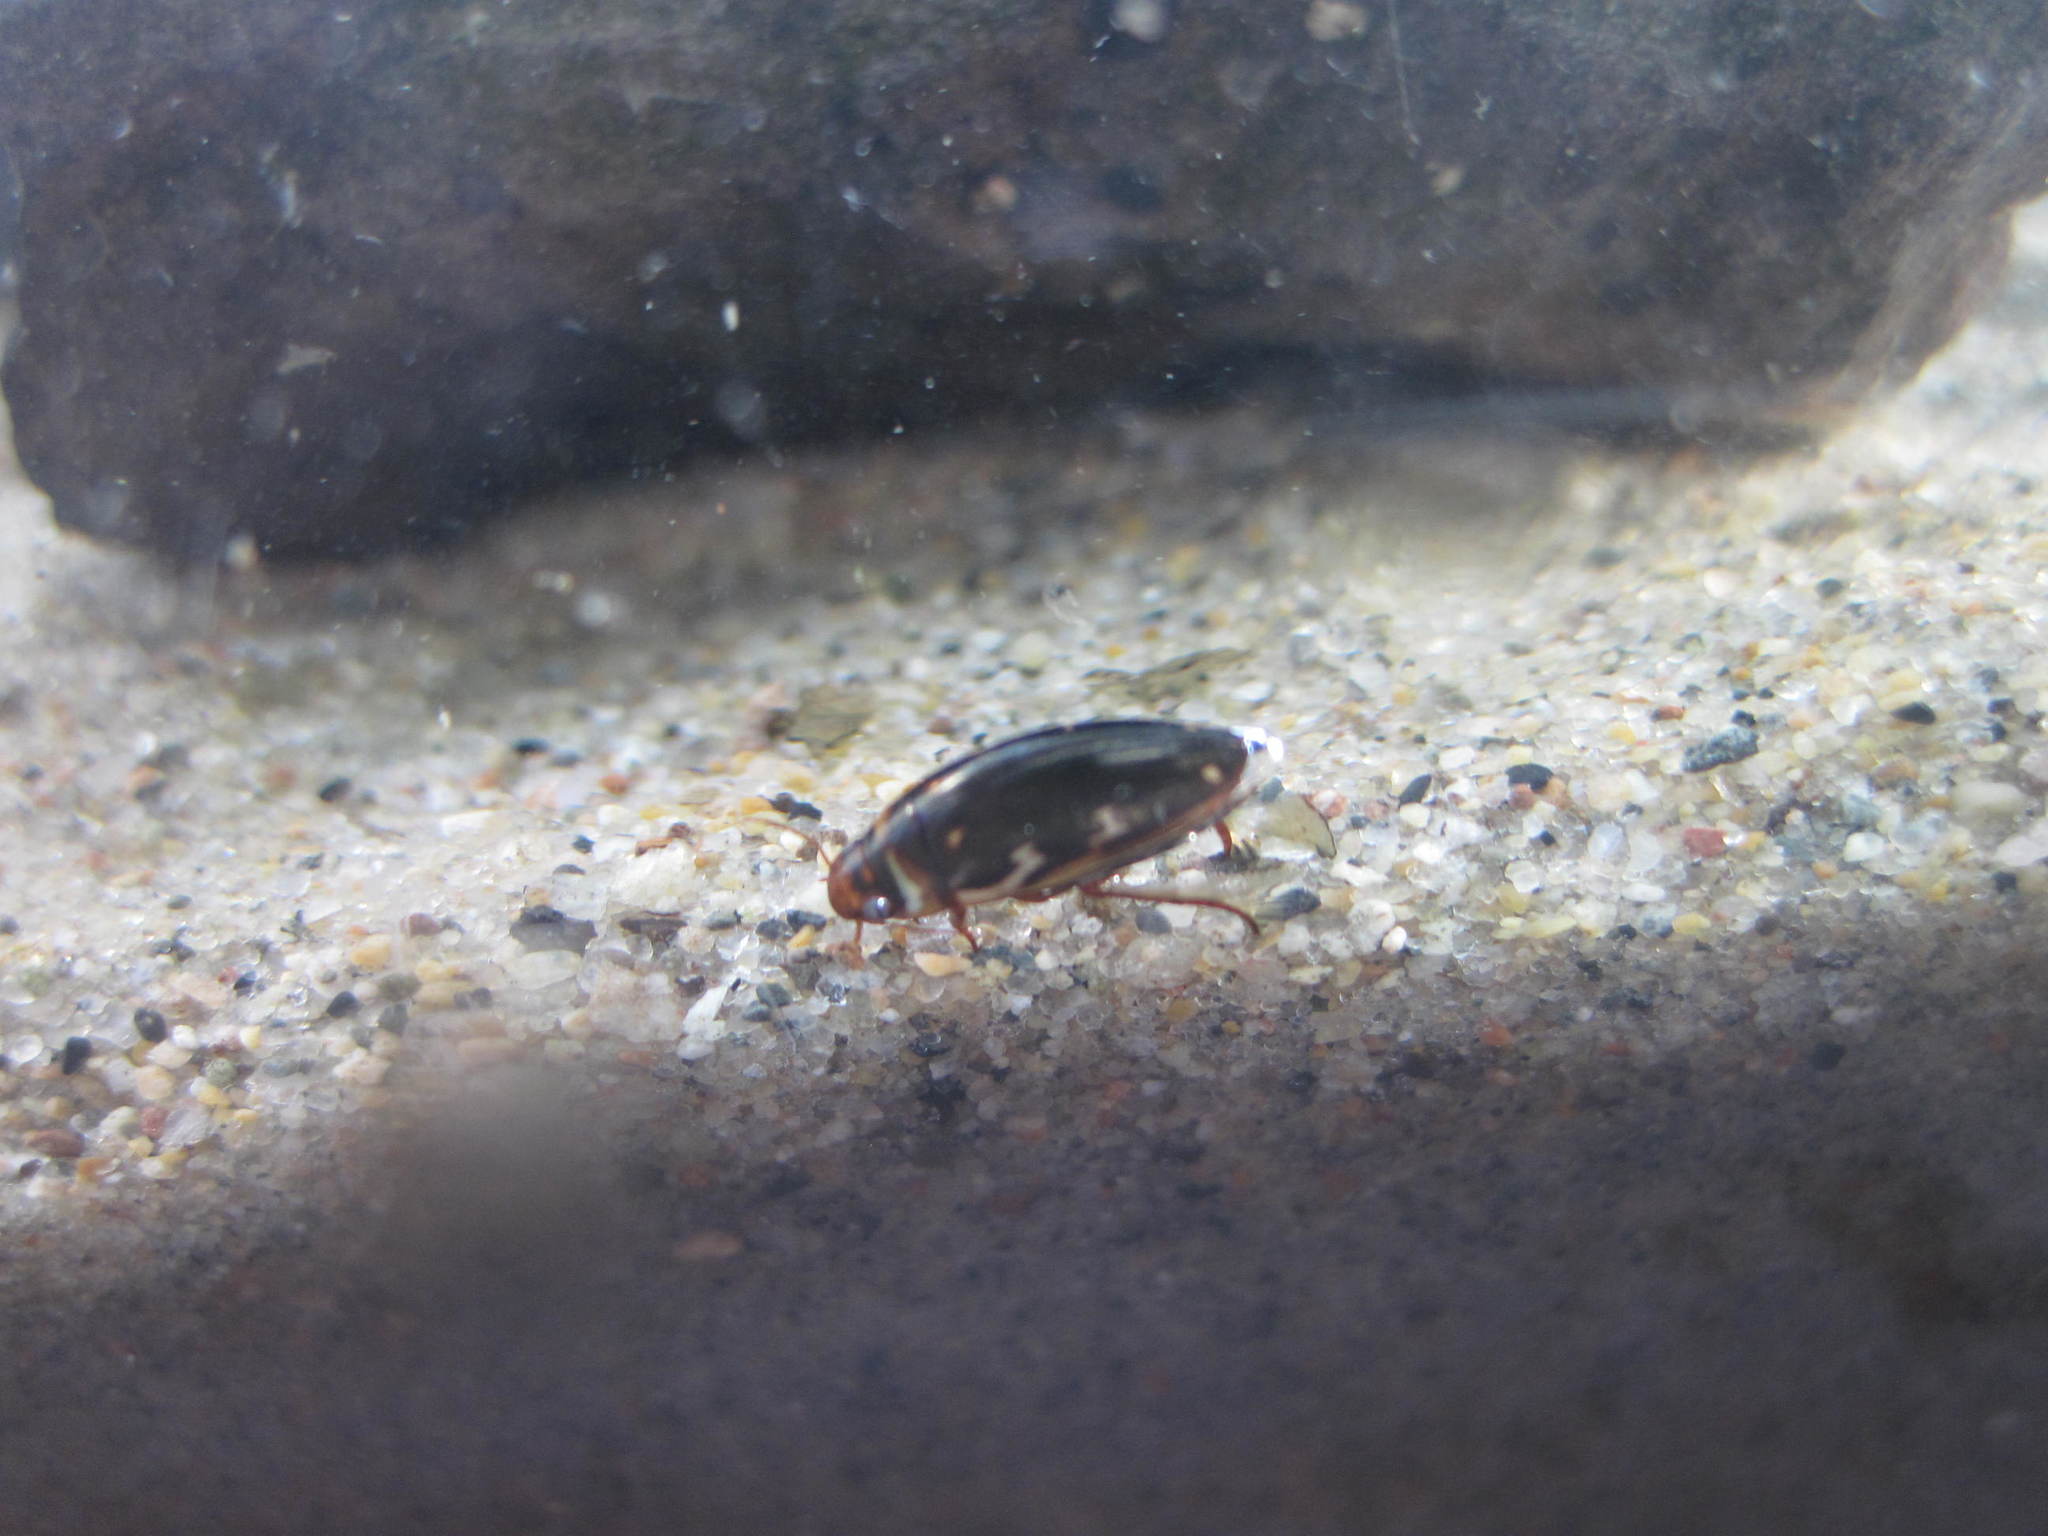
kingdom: Animalia
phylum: Arthropoda
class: Insecta
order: Coleoptera
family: Dytiscidae
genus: Platambus
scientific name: Platambus maculatus
